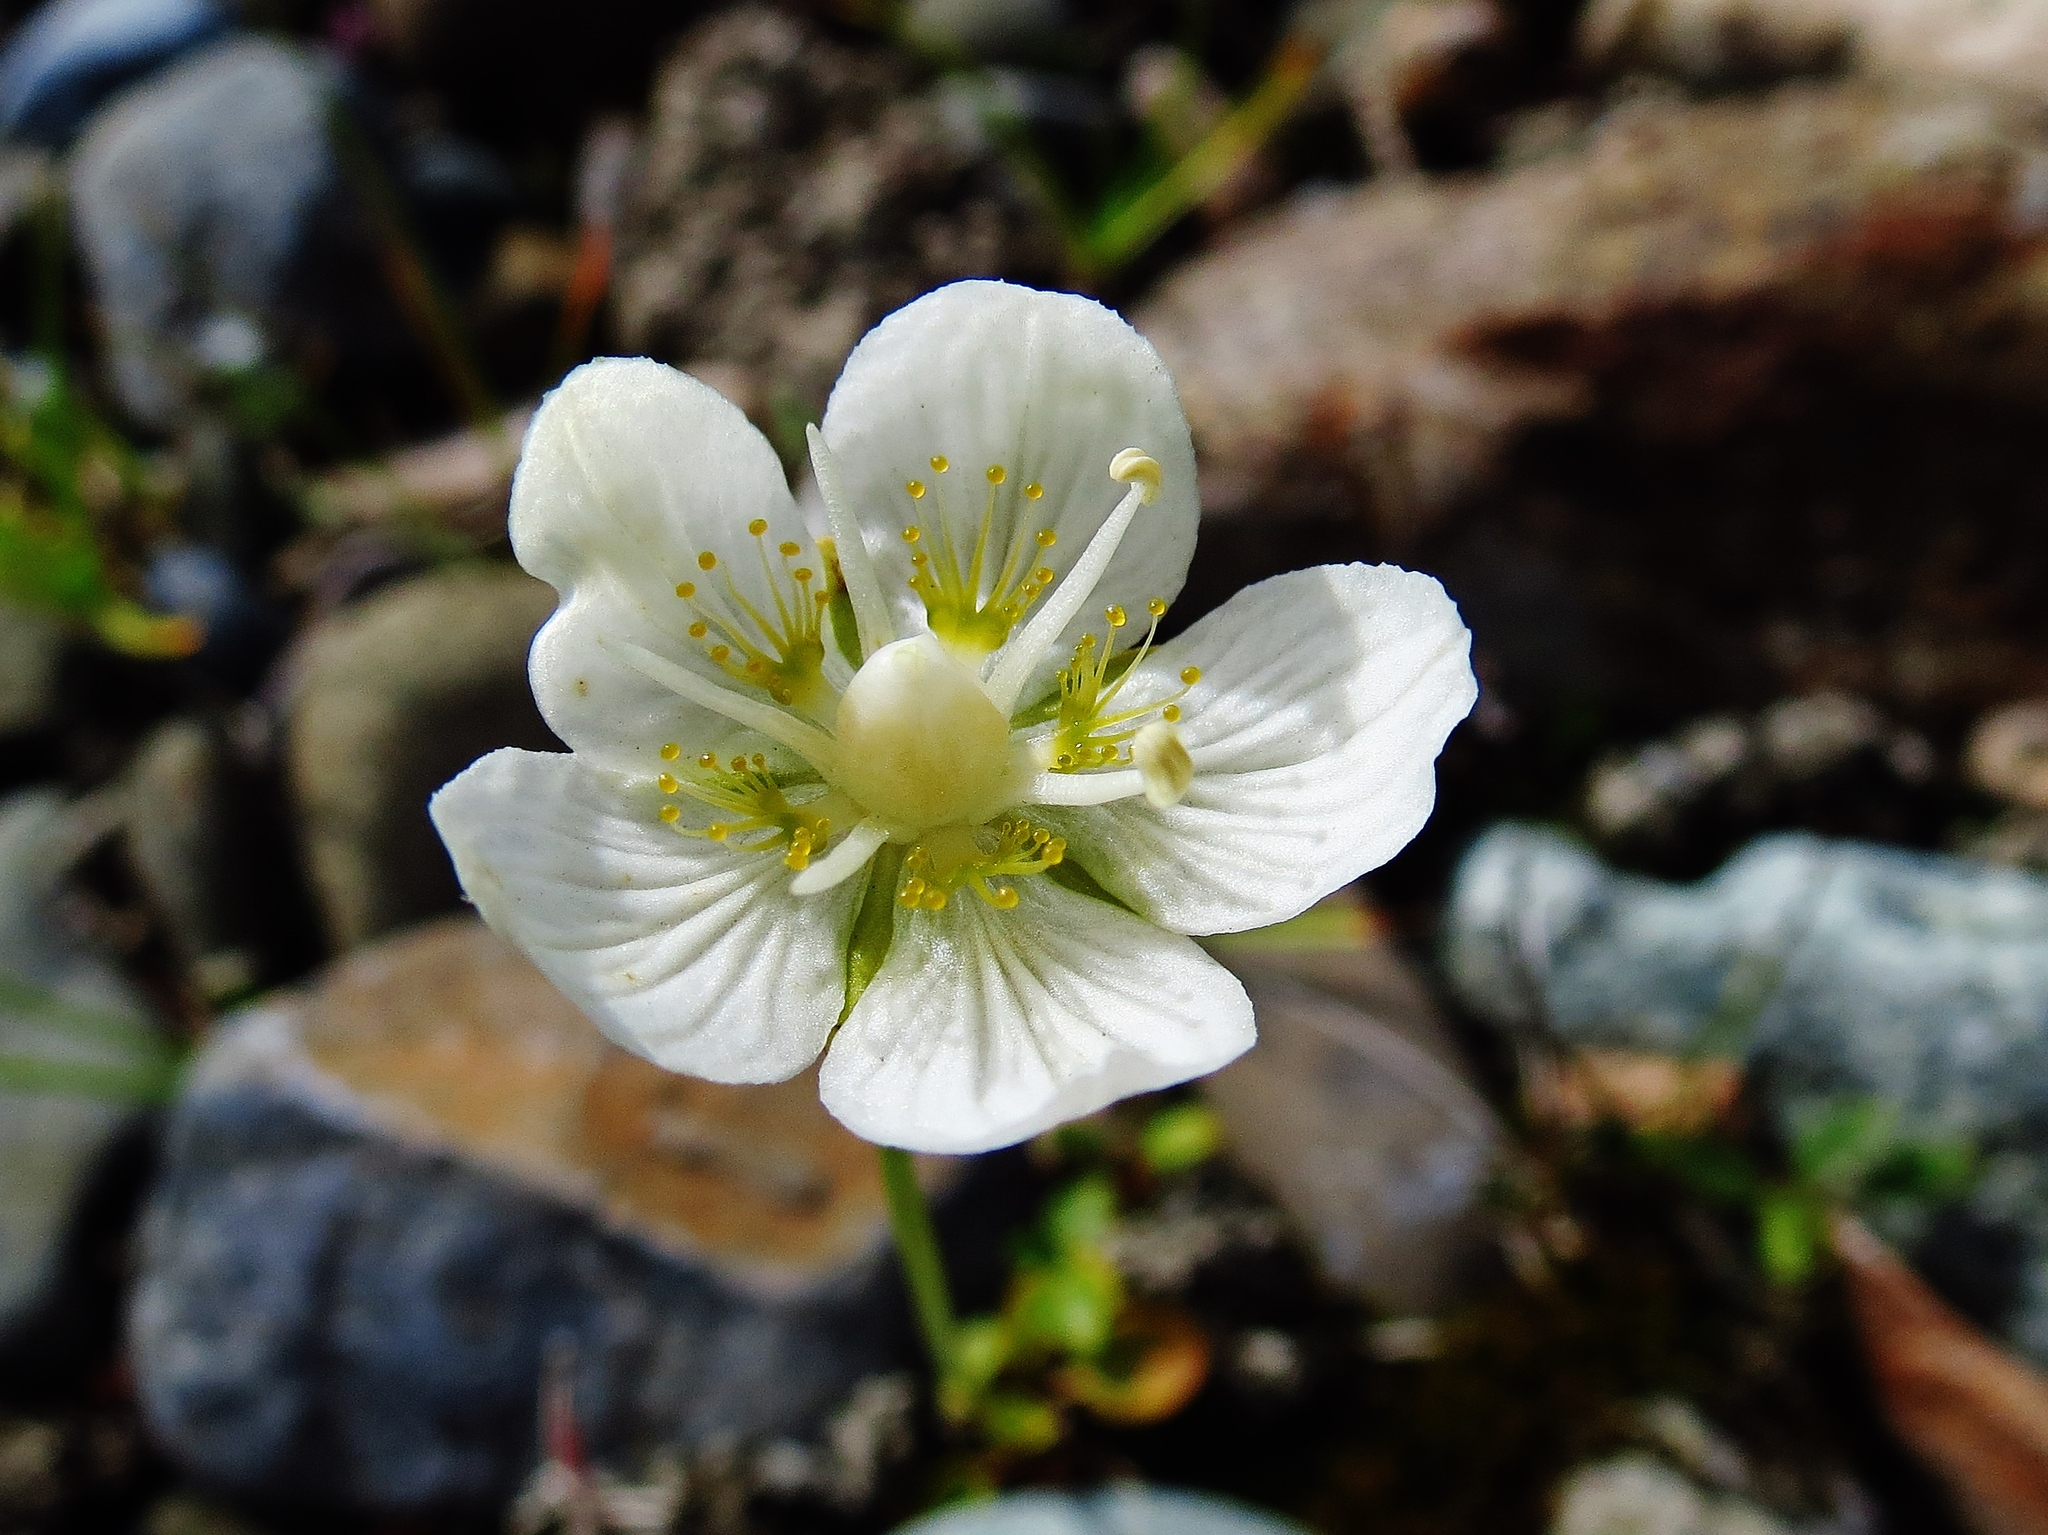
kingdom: Plantae
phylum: Tracheophyta
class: Magnoliopsida
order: Celastrales
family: Parnassiaceae
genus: Parnassia
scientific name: Parnassia palustris
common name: Grass-of-parnassus
